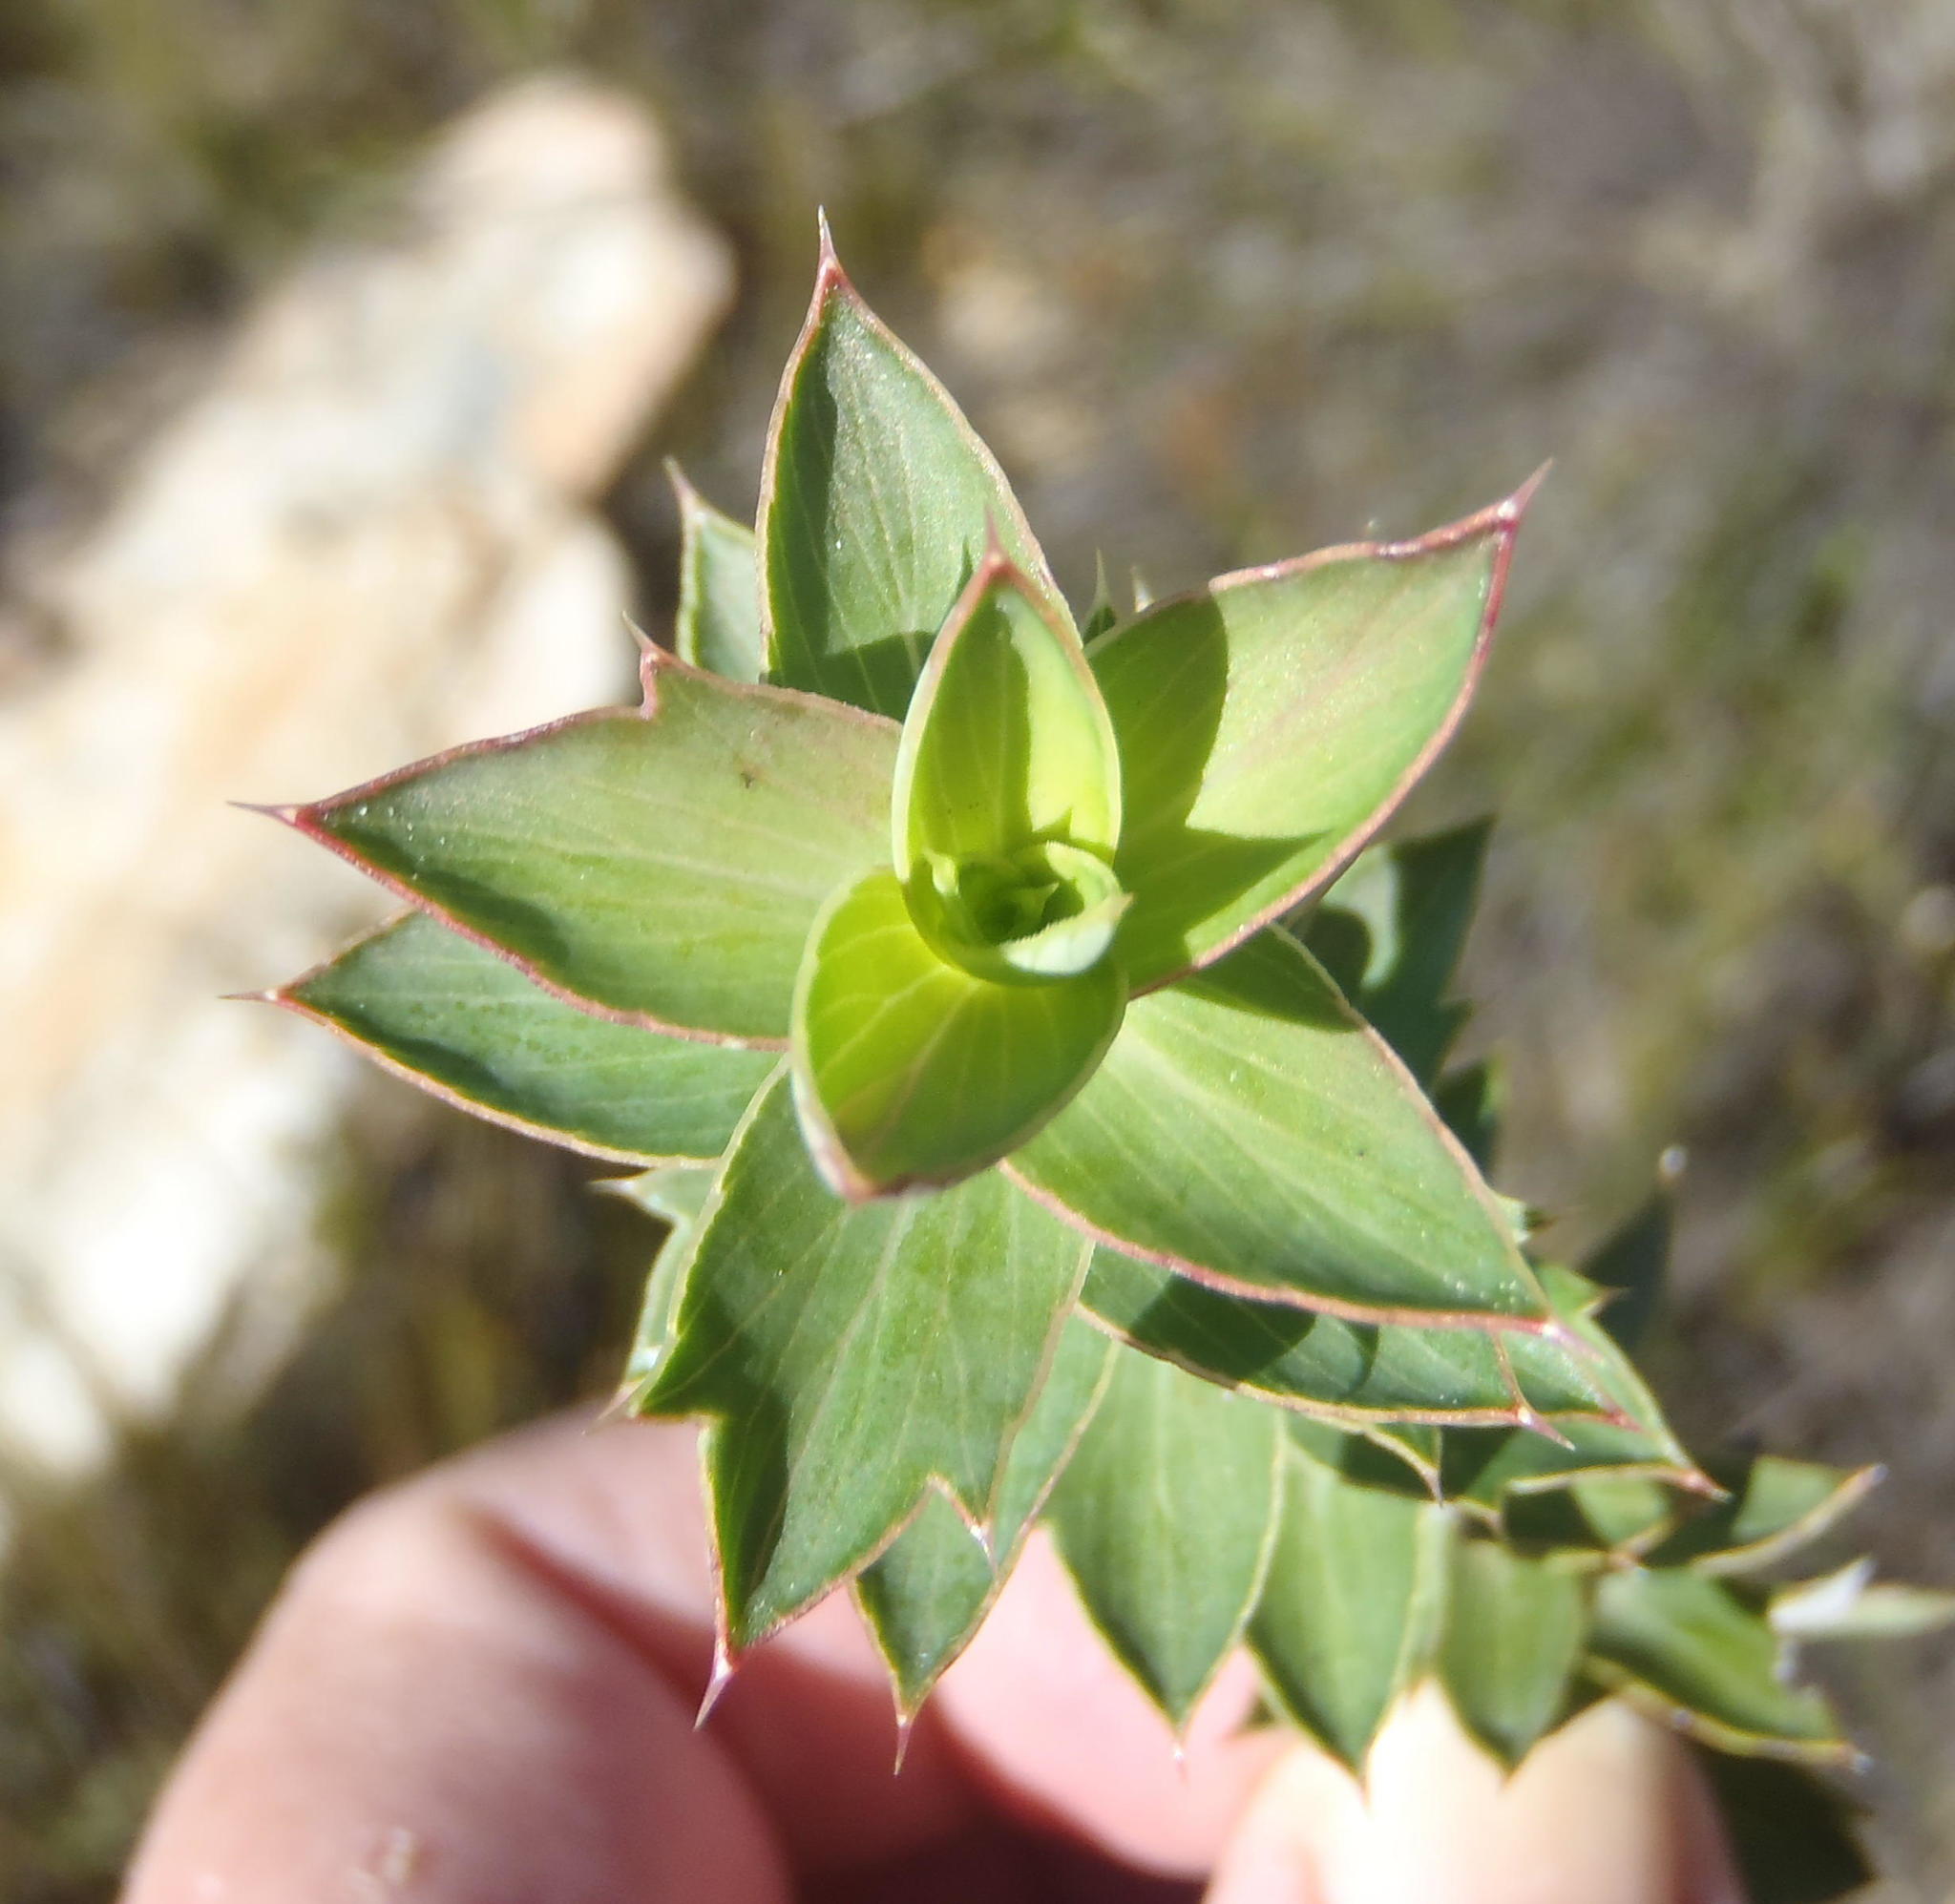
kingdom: Plantae
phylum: Tracheophyta
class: Magnoliopsida
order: Rosales
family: Rosaceae
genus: Cliffortia
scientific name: Cliffortia ilicifolia
